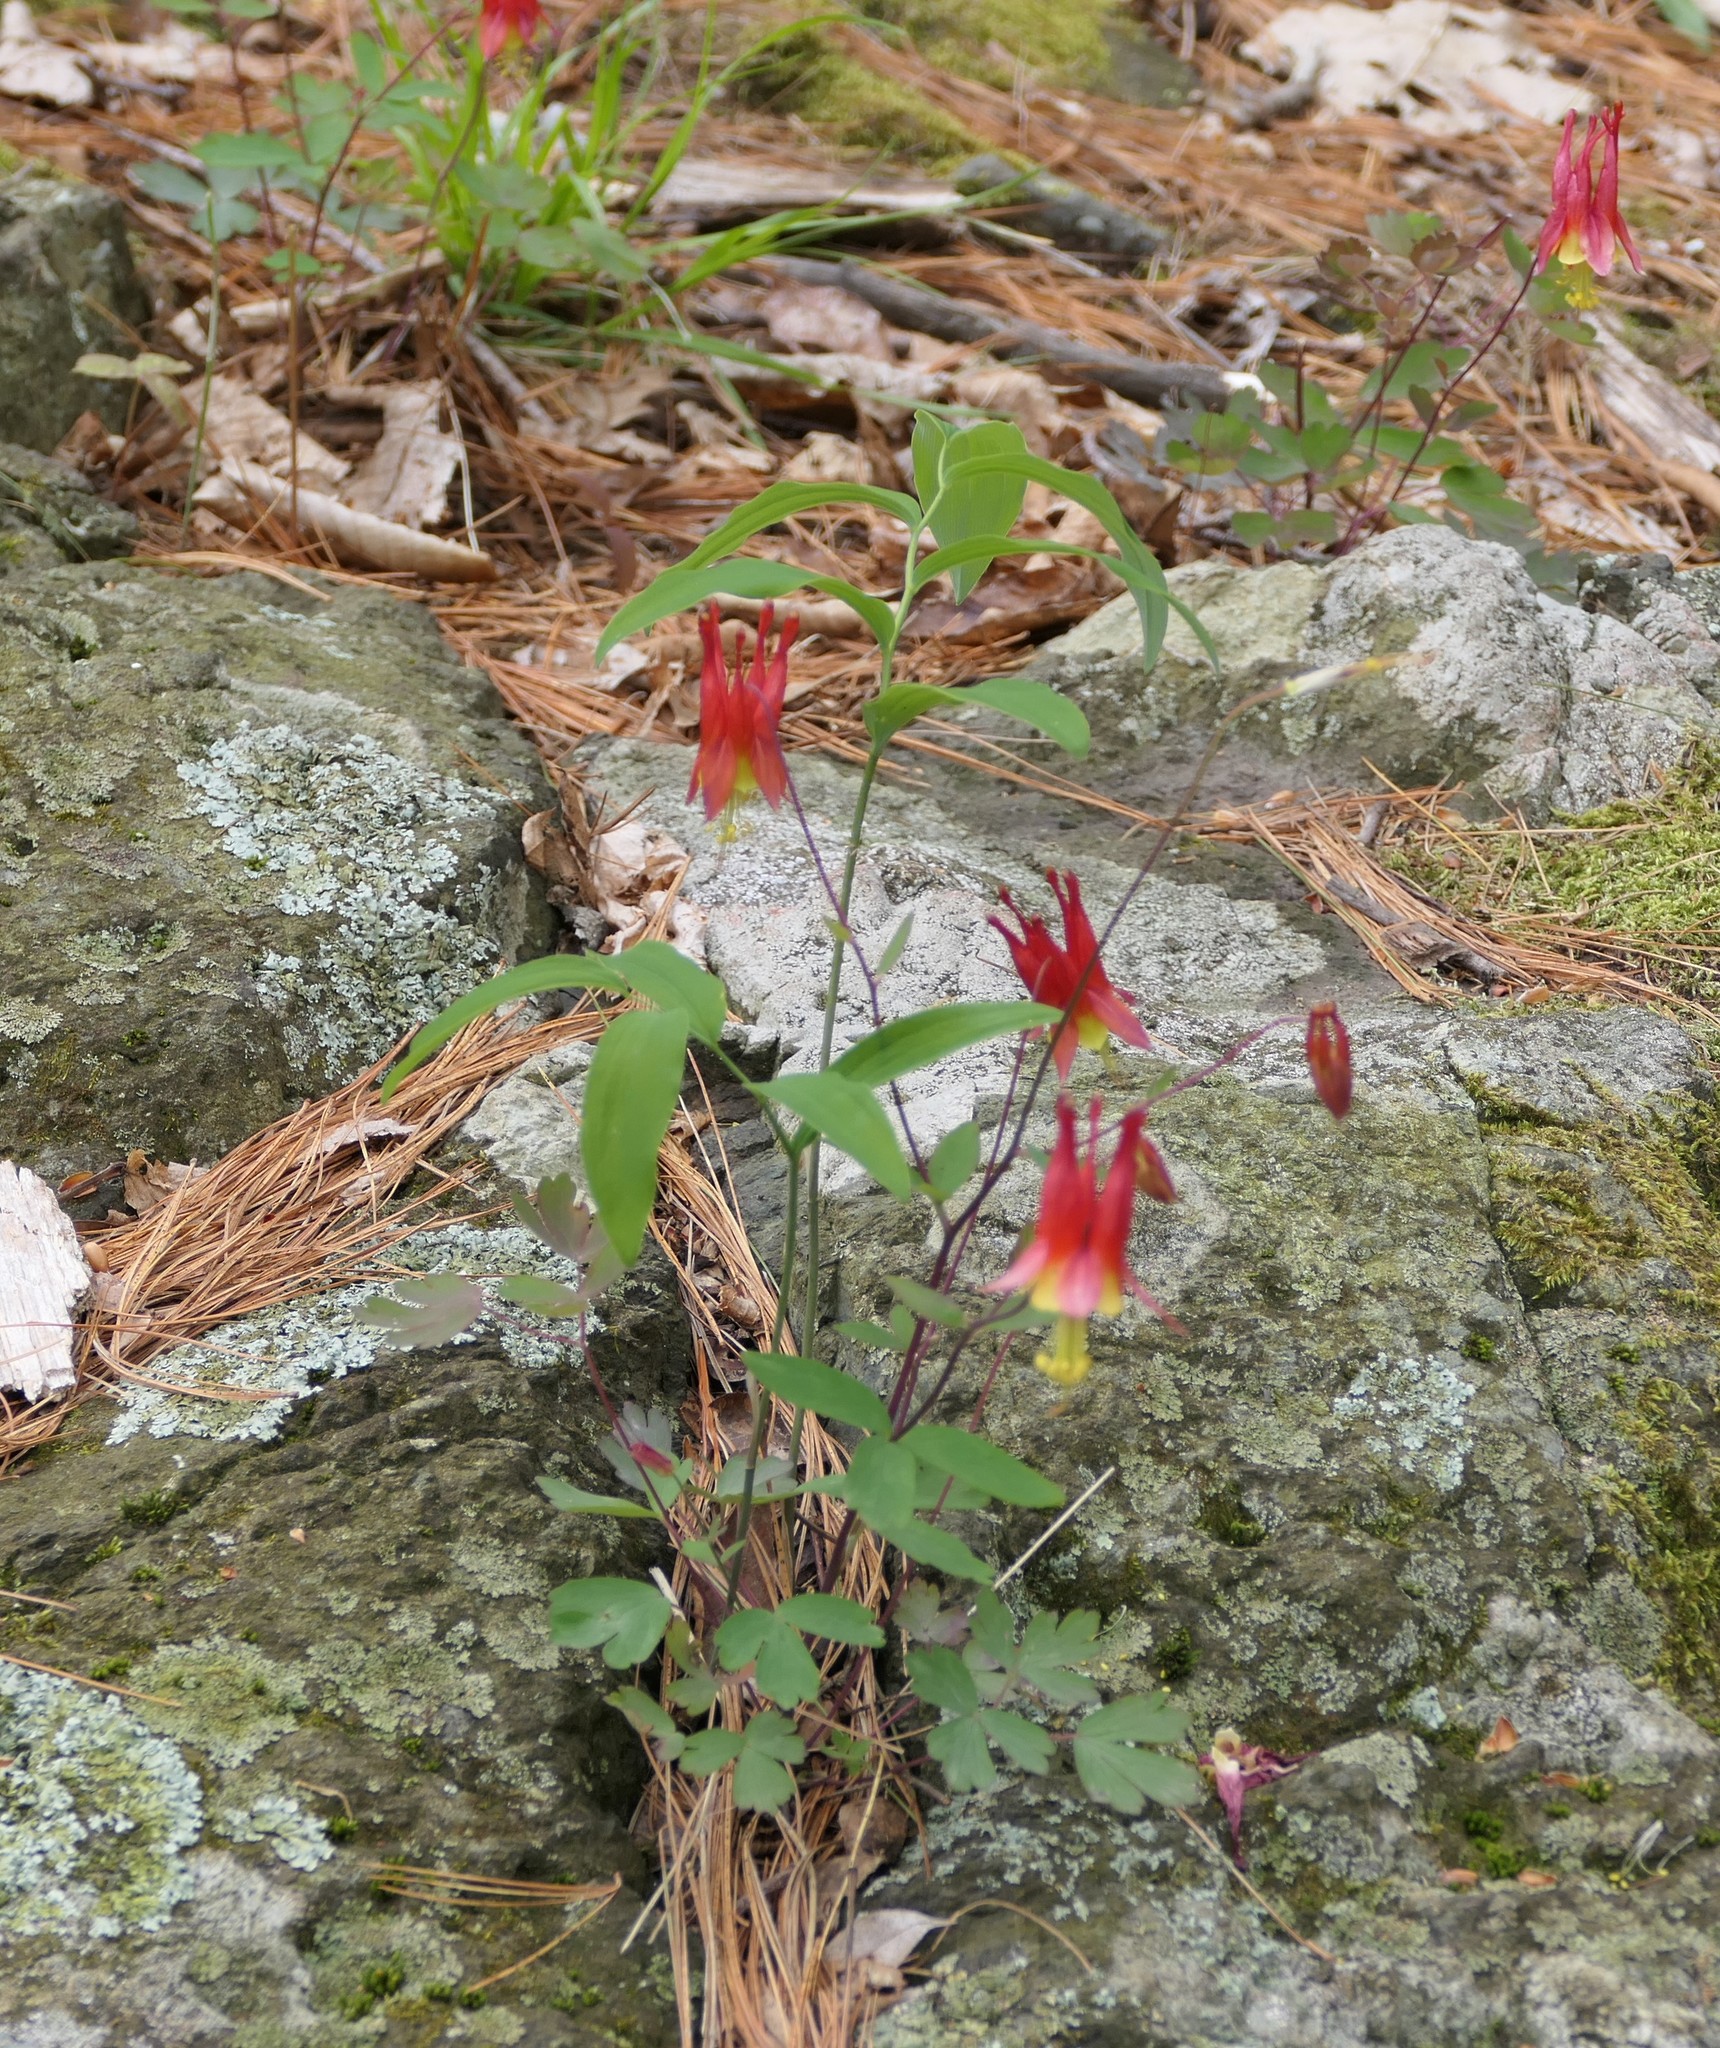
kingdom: Plantae
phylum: Tracheophyta
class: Magnoliopsida
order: Ranunculales
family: Ranunculaceae
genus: Aquilegia
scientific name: Aquilegia canadensis
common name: American columbine
